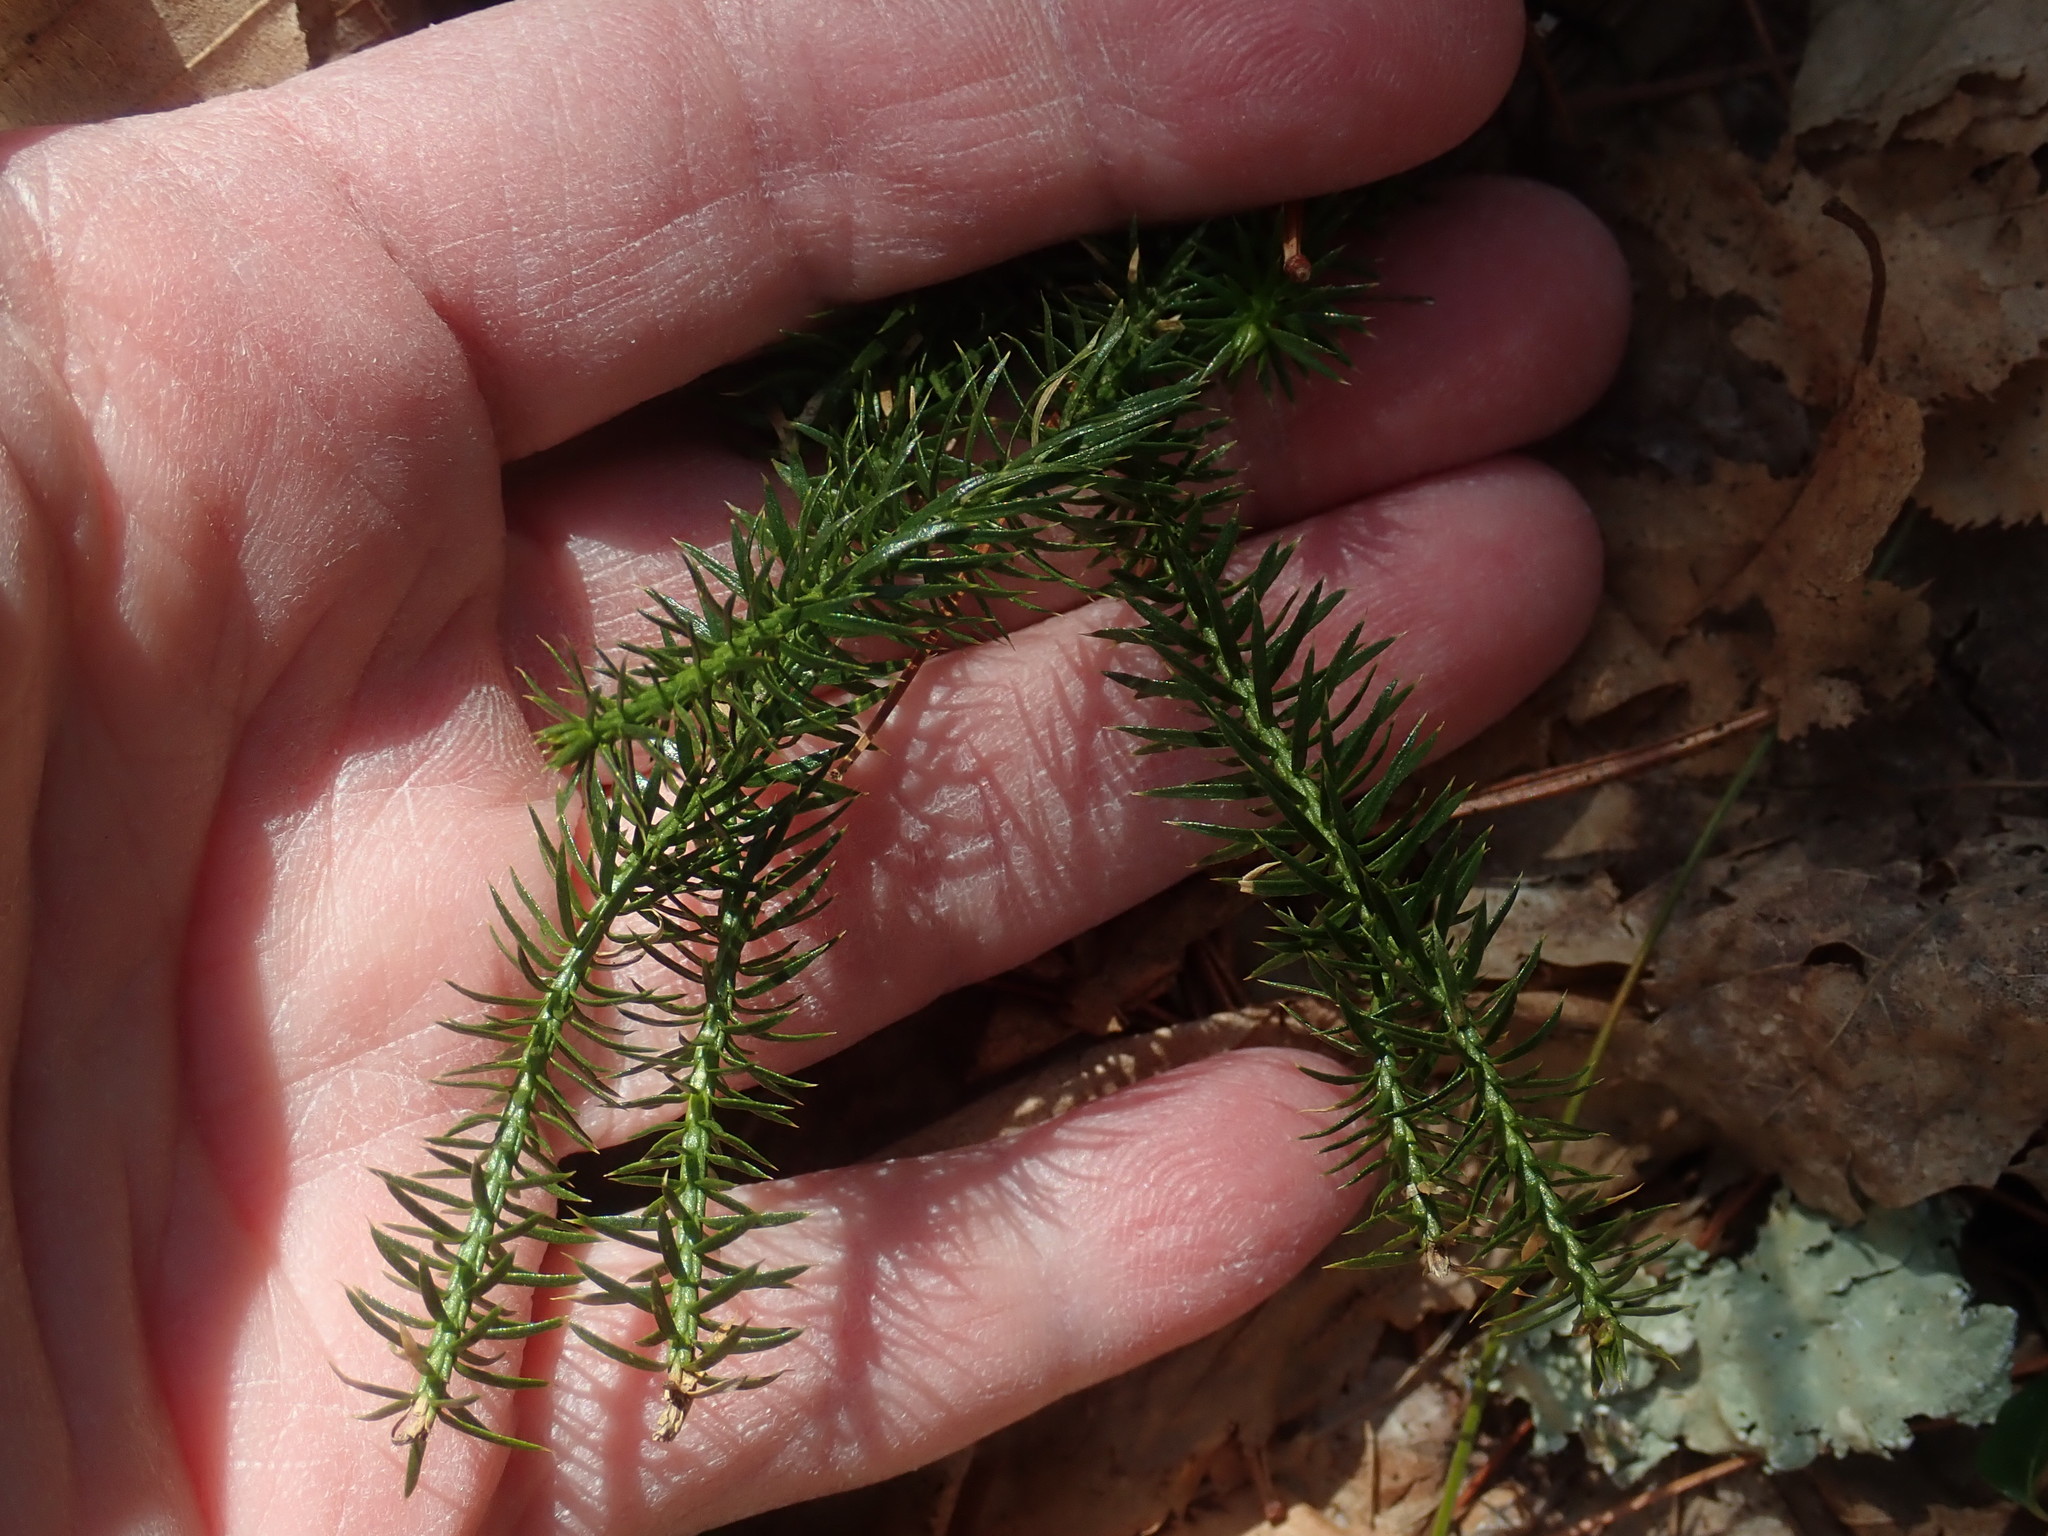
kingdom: Plantae
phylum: Tracheophyta
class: Lycopodiopsida
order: Lycopodiales
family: Lycopodiaceae
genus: Spinulum
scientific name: Spinulum annotinum
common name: Interrupted club-moss
